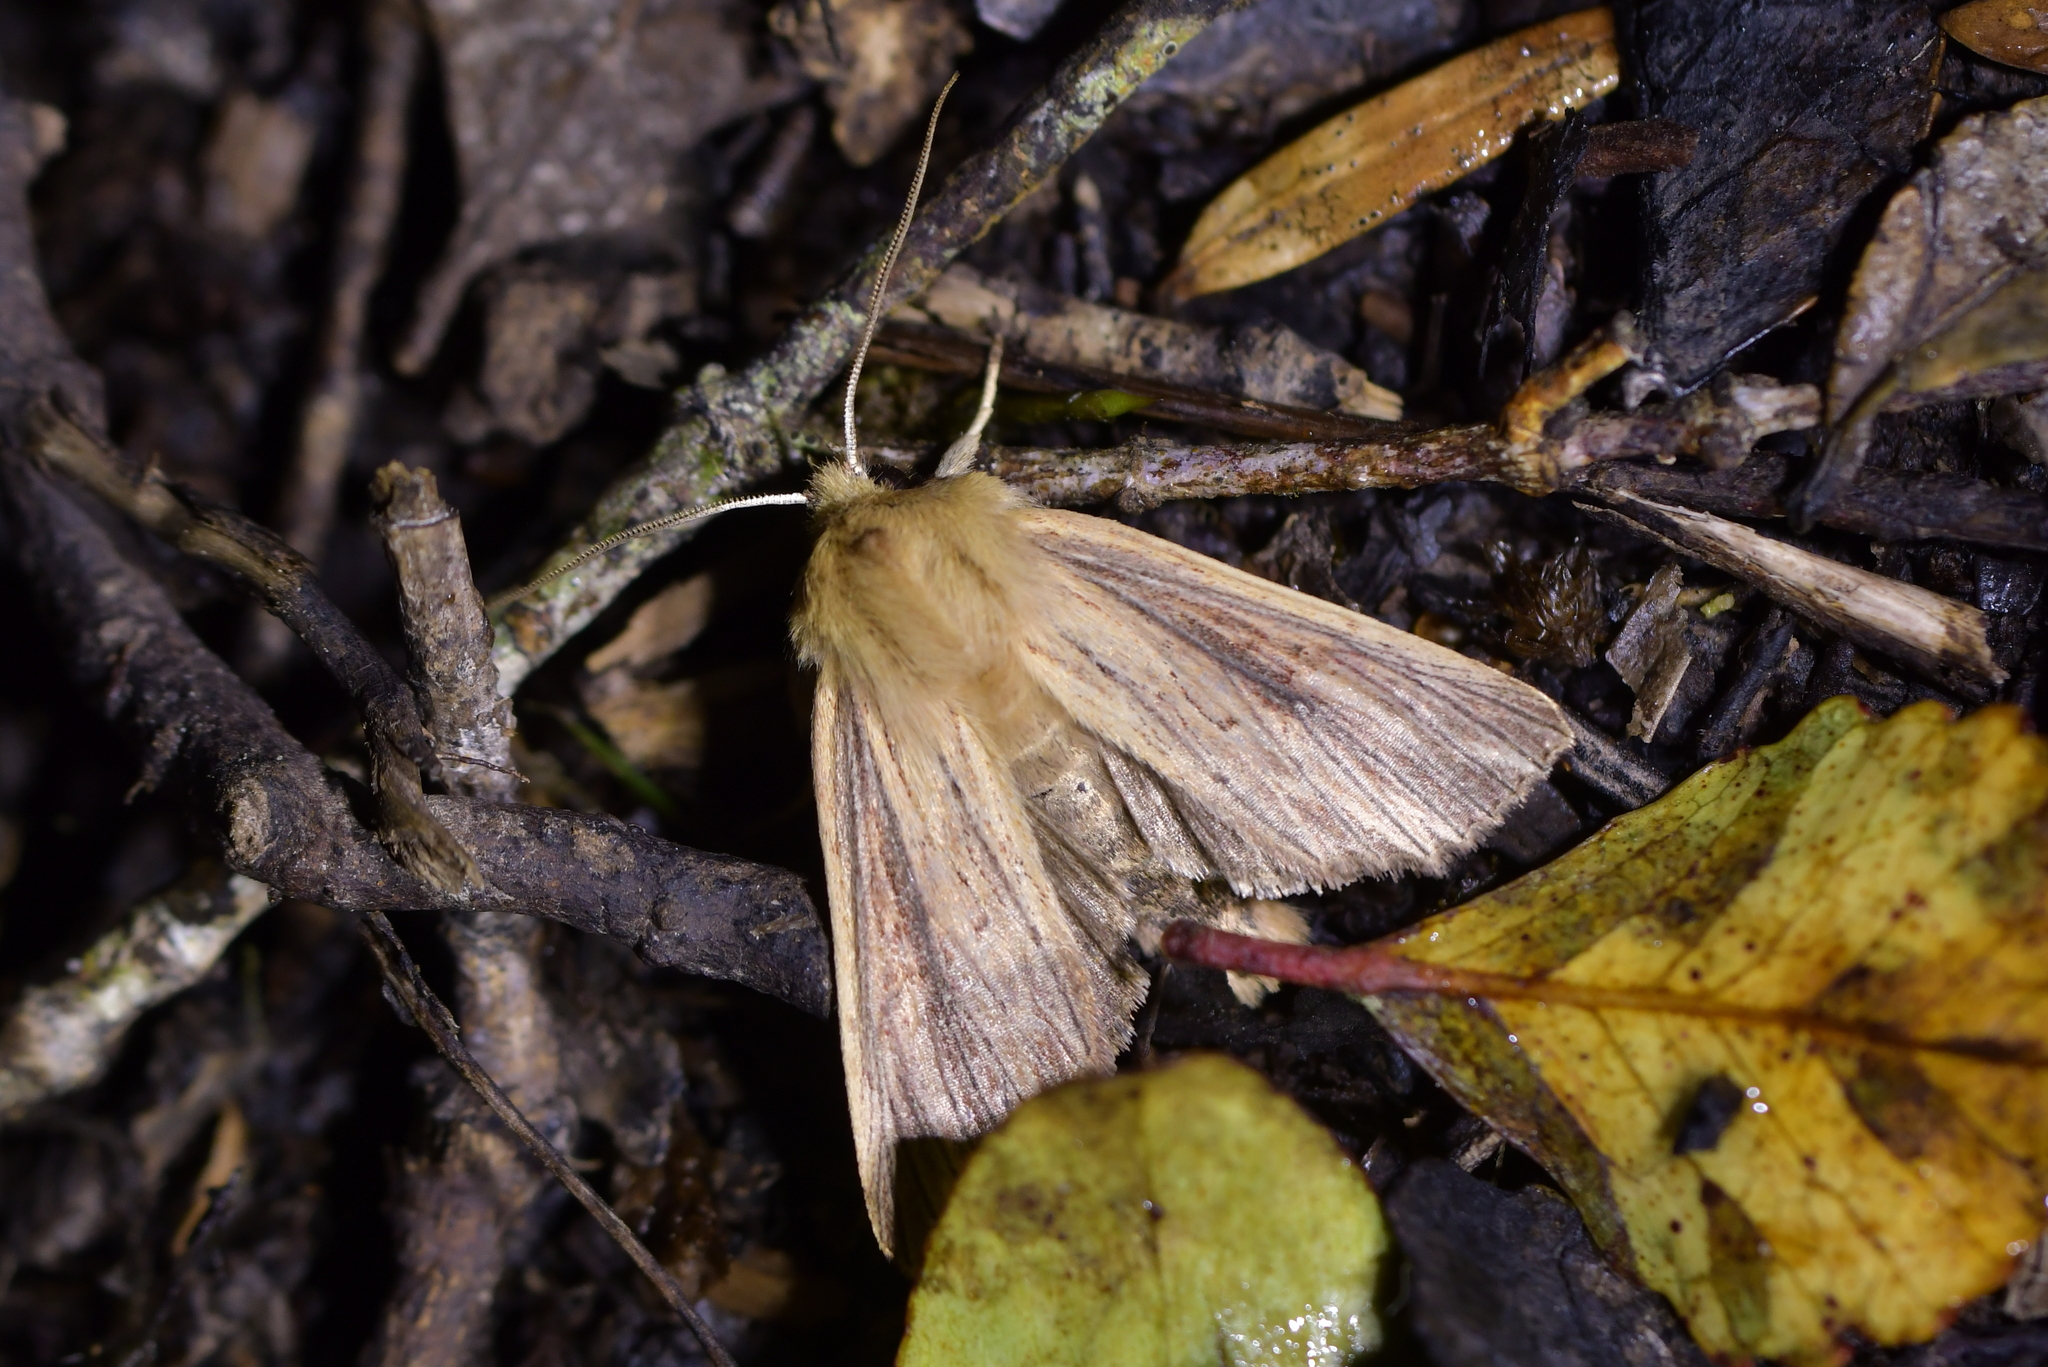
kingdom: Animalia
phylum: Arthropoda
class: Insecta
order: Lepidoptera
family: Noctuidae
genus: Ichneutica
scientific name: Ichneutica arotis
